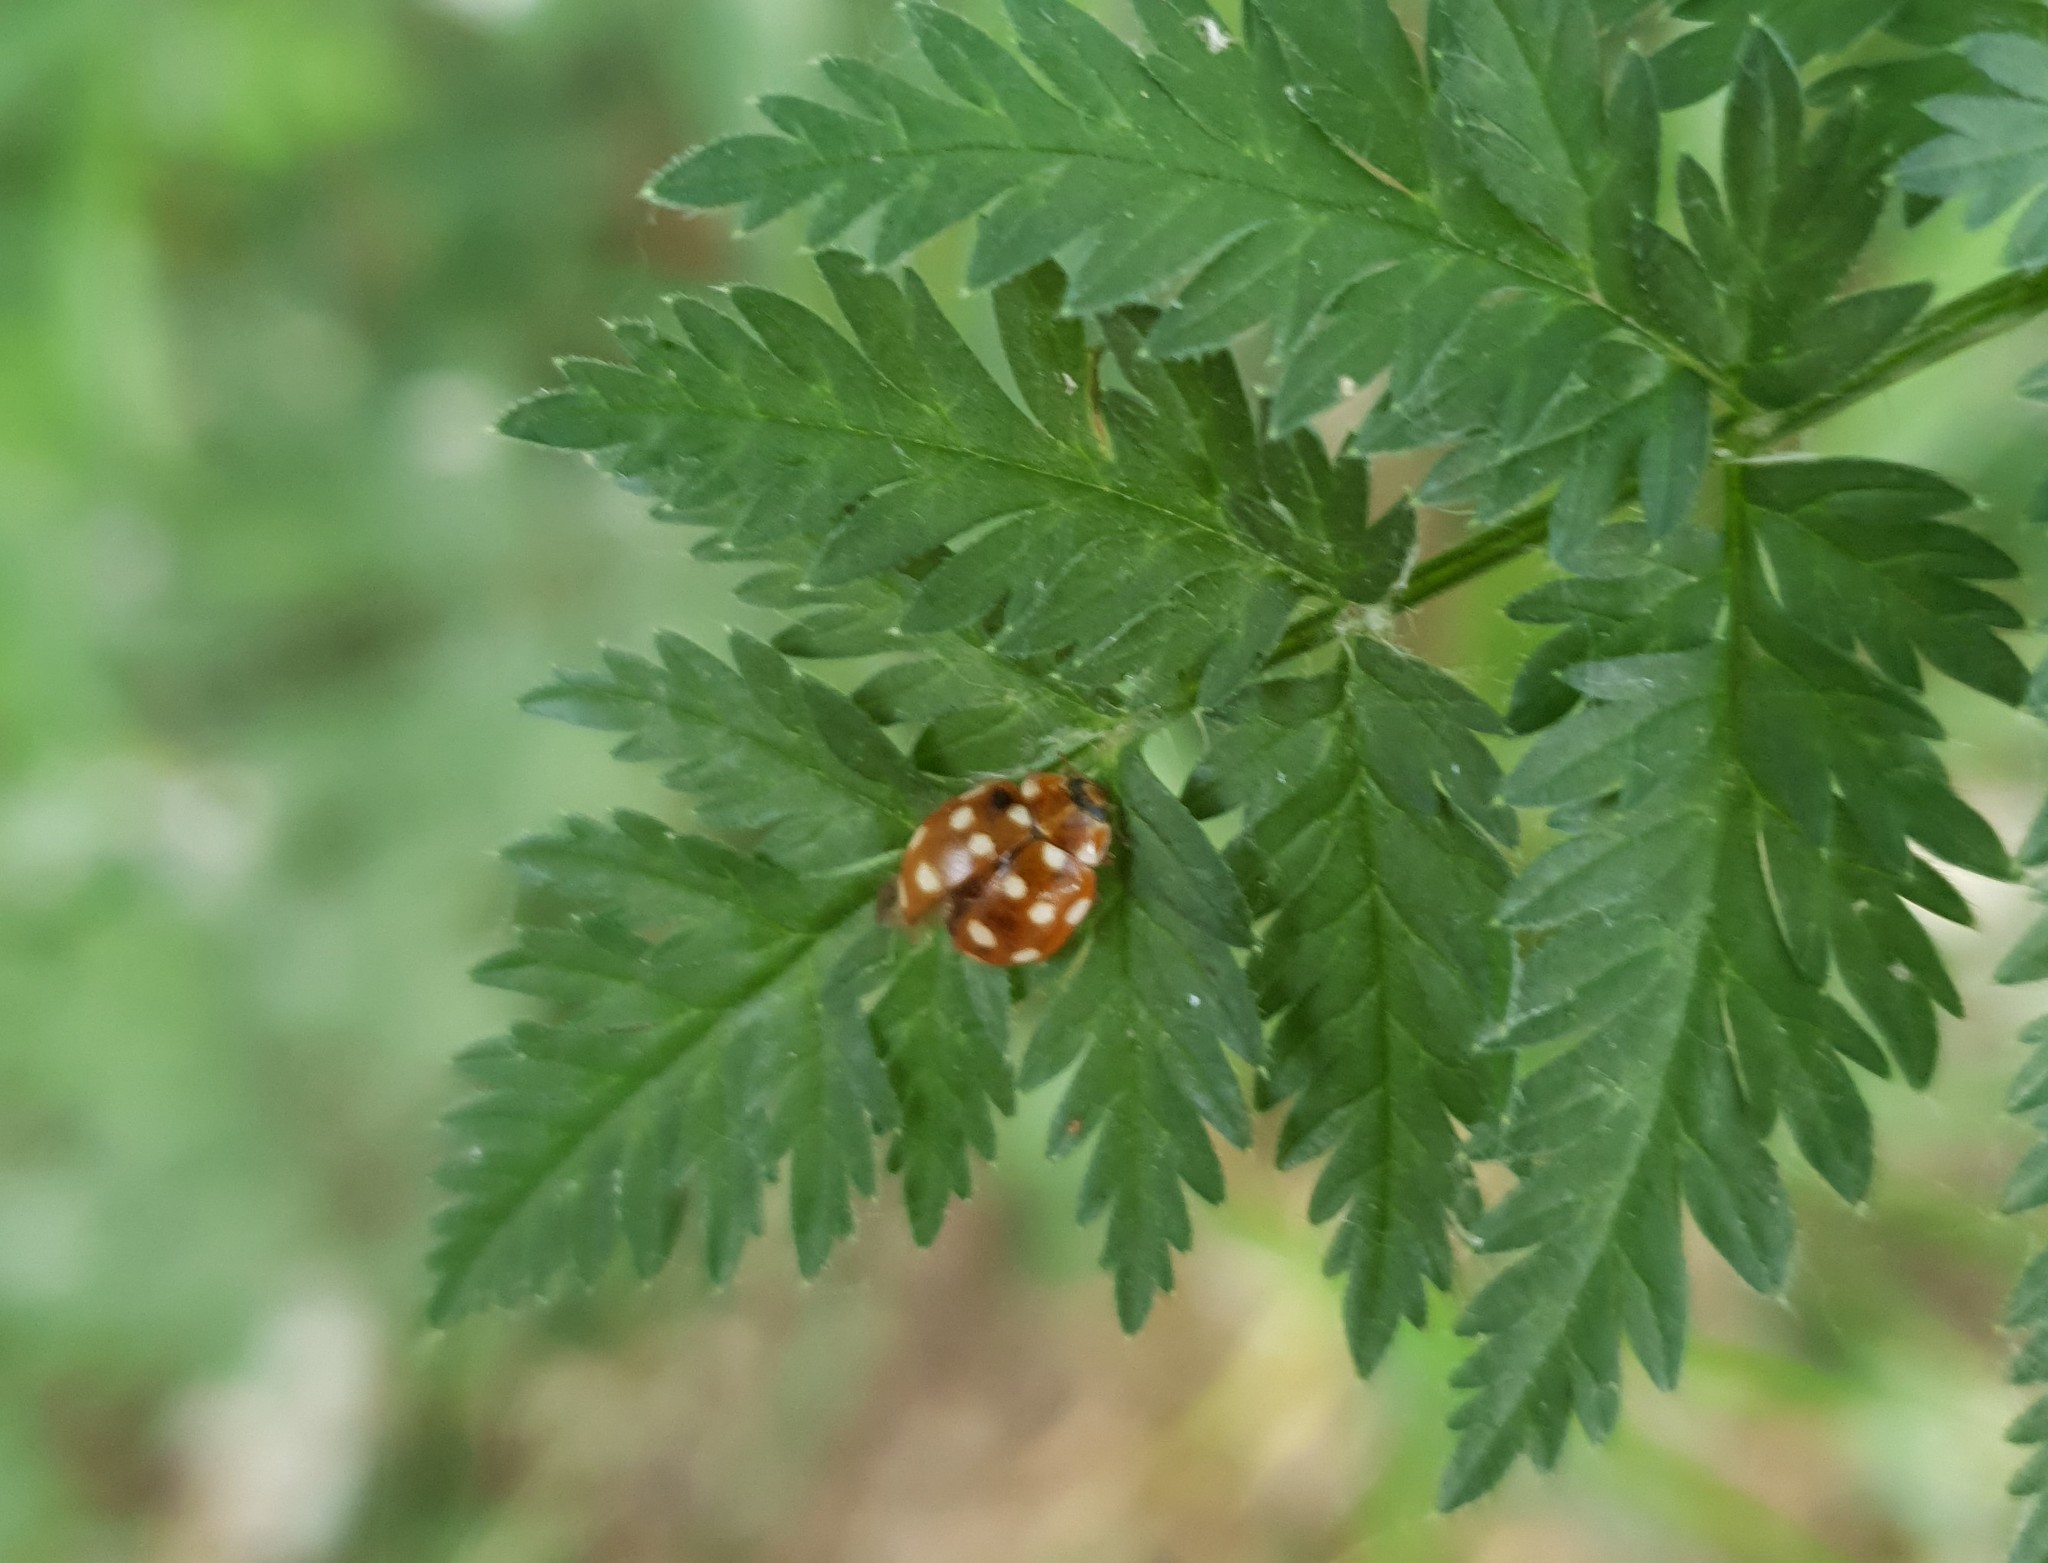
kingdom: Animalia
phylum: Arthropoda
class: Insecta
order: Coleoptera
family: Coccinellidae
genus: Calvia
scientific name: Calvia quatuordecimguttata
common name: Cream-spot ladybird
